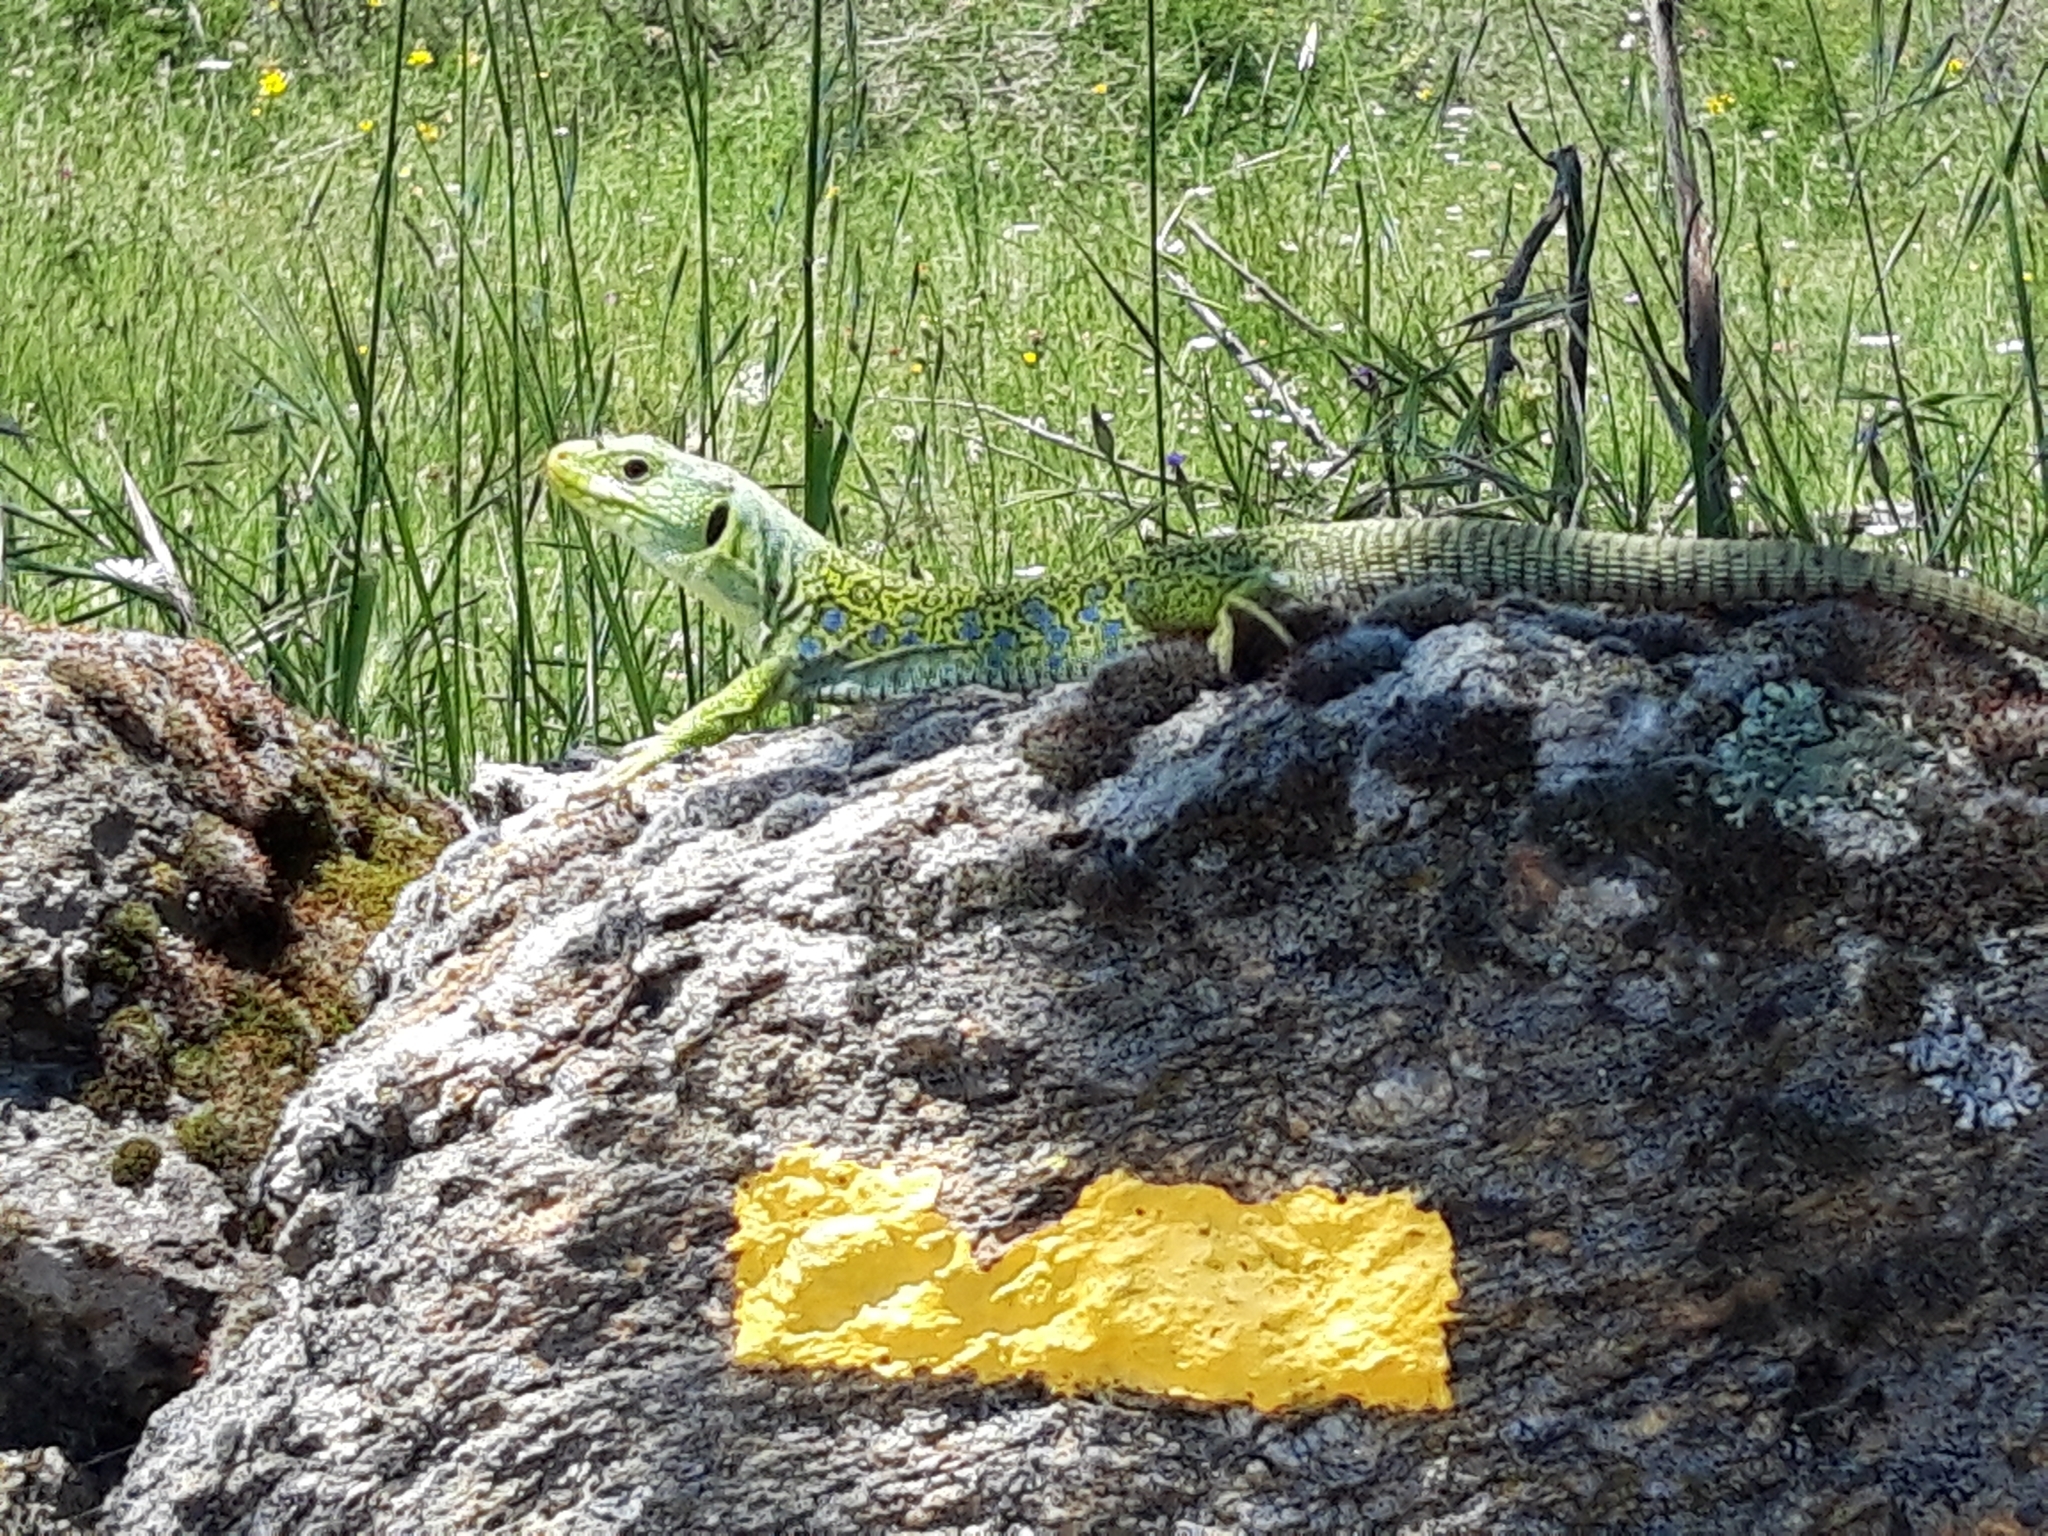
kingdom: Animalia
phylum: Chordata
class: Squamata
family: Lacertidae
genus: Timon
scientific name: Timon lepidus
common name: Ocellated lizard
